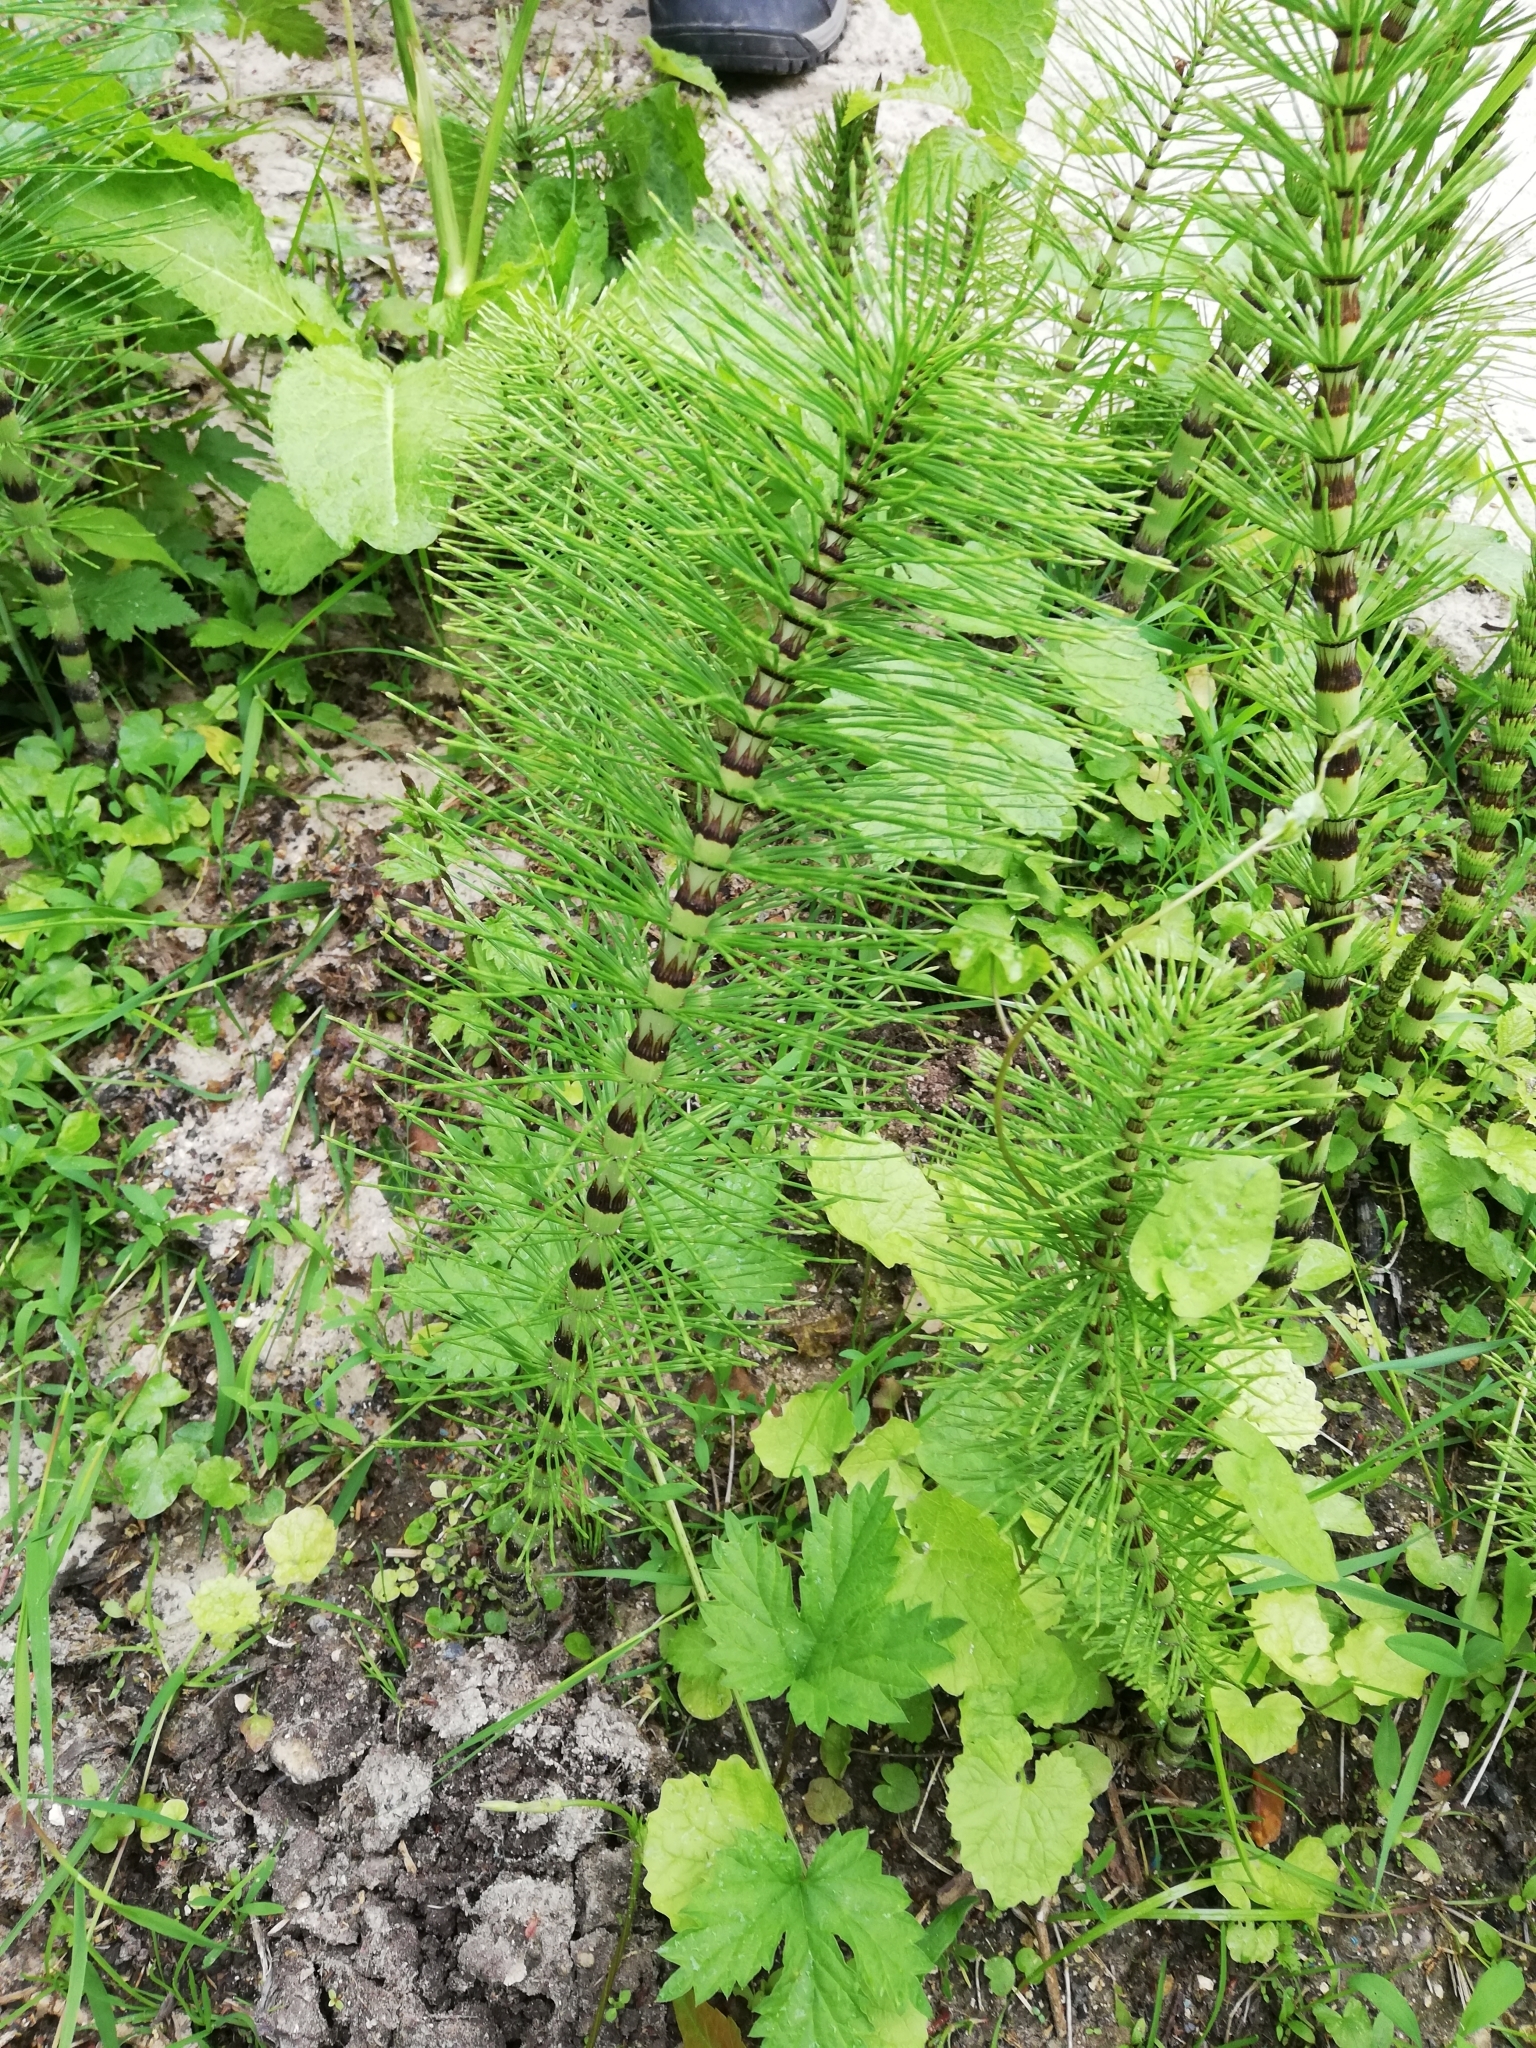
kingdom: Plantae
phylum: Tracheophyta
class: Polypodiopsida
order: Equisetales
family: Equisetaceae
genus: Equisetum
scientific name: Equisetum telmateia
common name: Great horsetail
